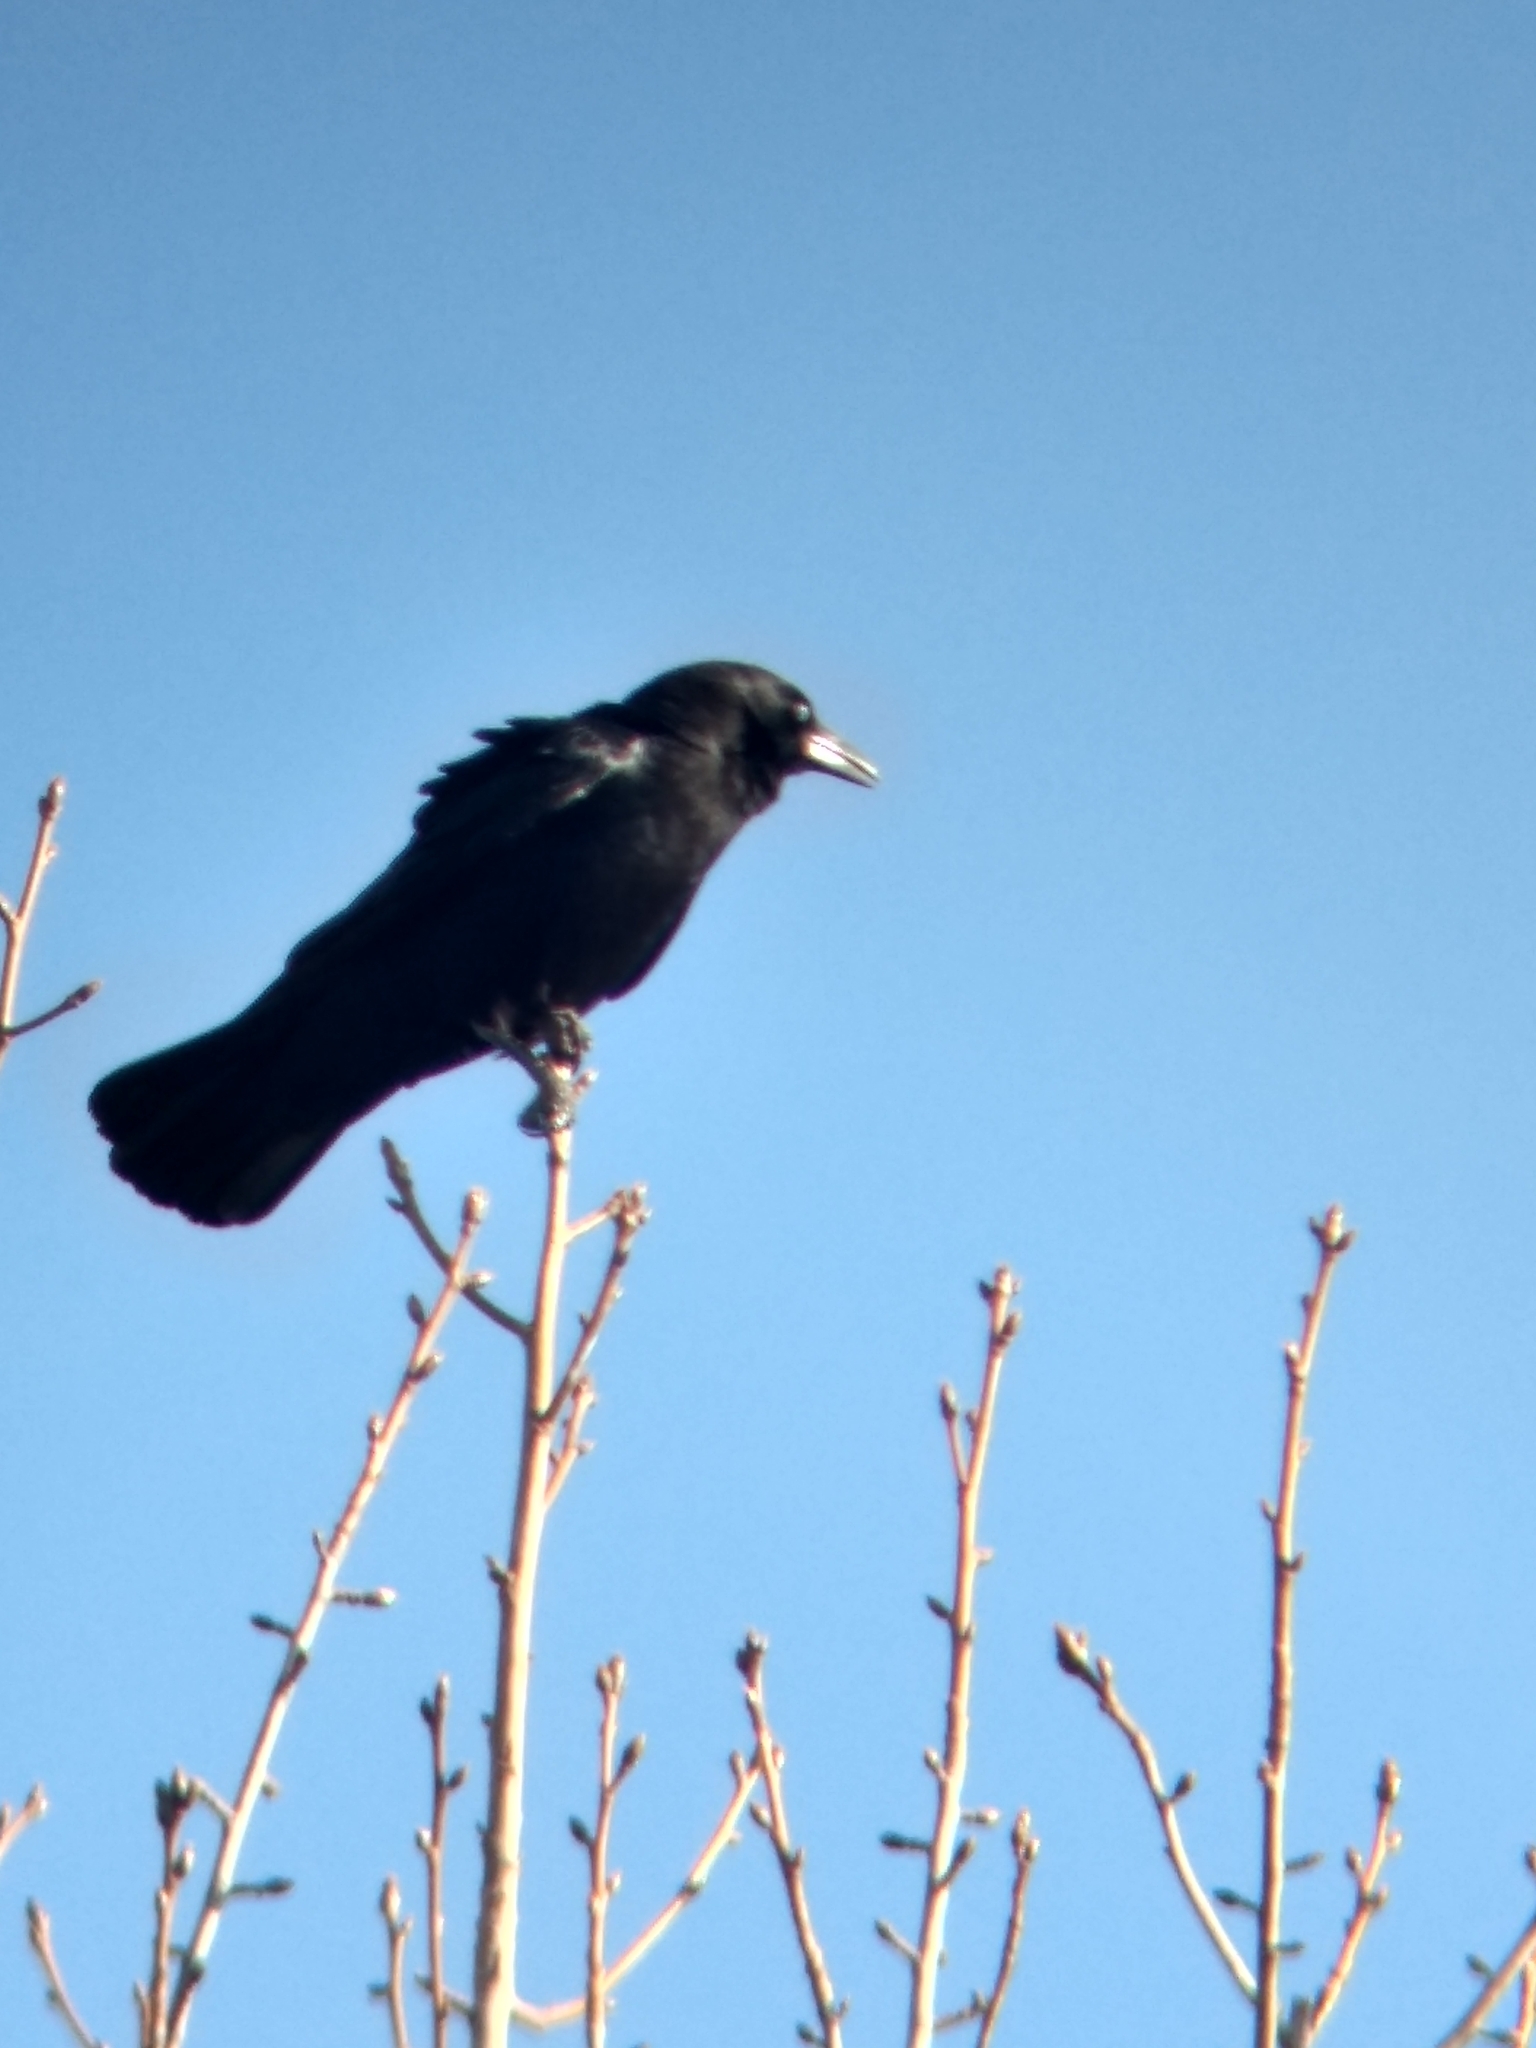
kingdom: Animalia
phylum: Chordata
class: Aves
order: Passeriformes
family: Corvidae
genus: Corvus
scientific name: Corvus brachyrhynchos
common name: American crow
